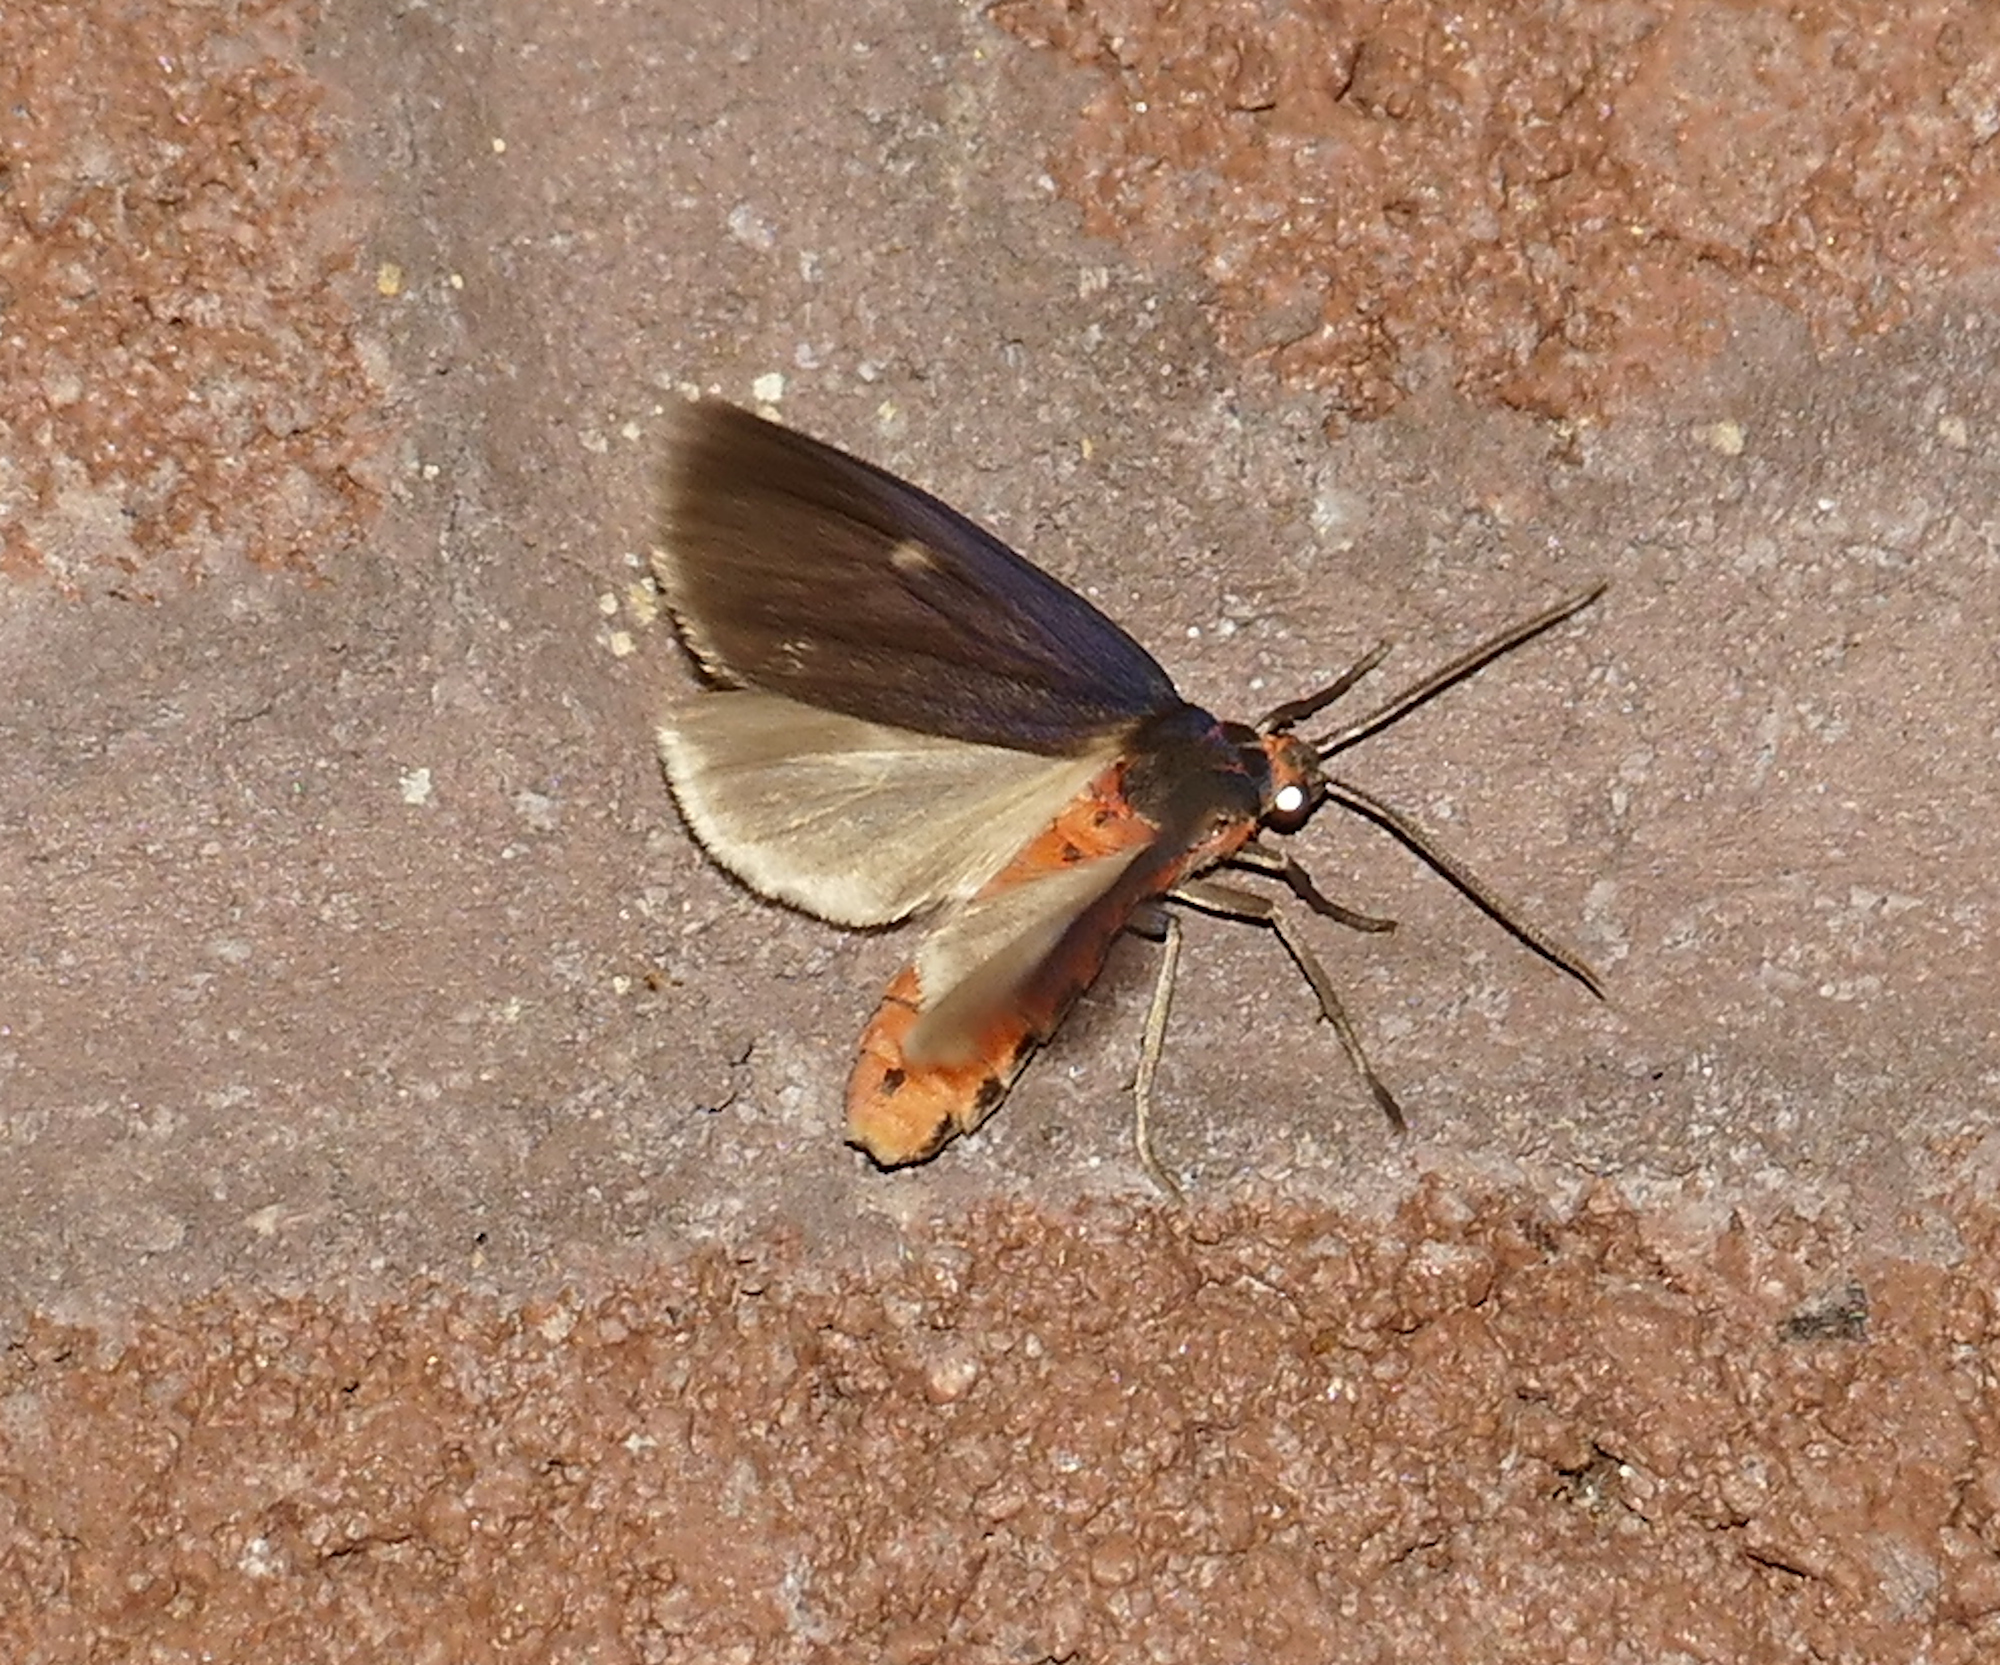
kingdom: Animalia
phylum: Arthropoda
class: Insecta
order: Lepidoptera
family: Erebidae
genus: Pygarctia
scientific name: Pygarctia murina
